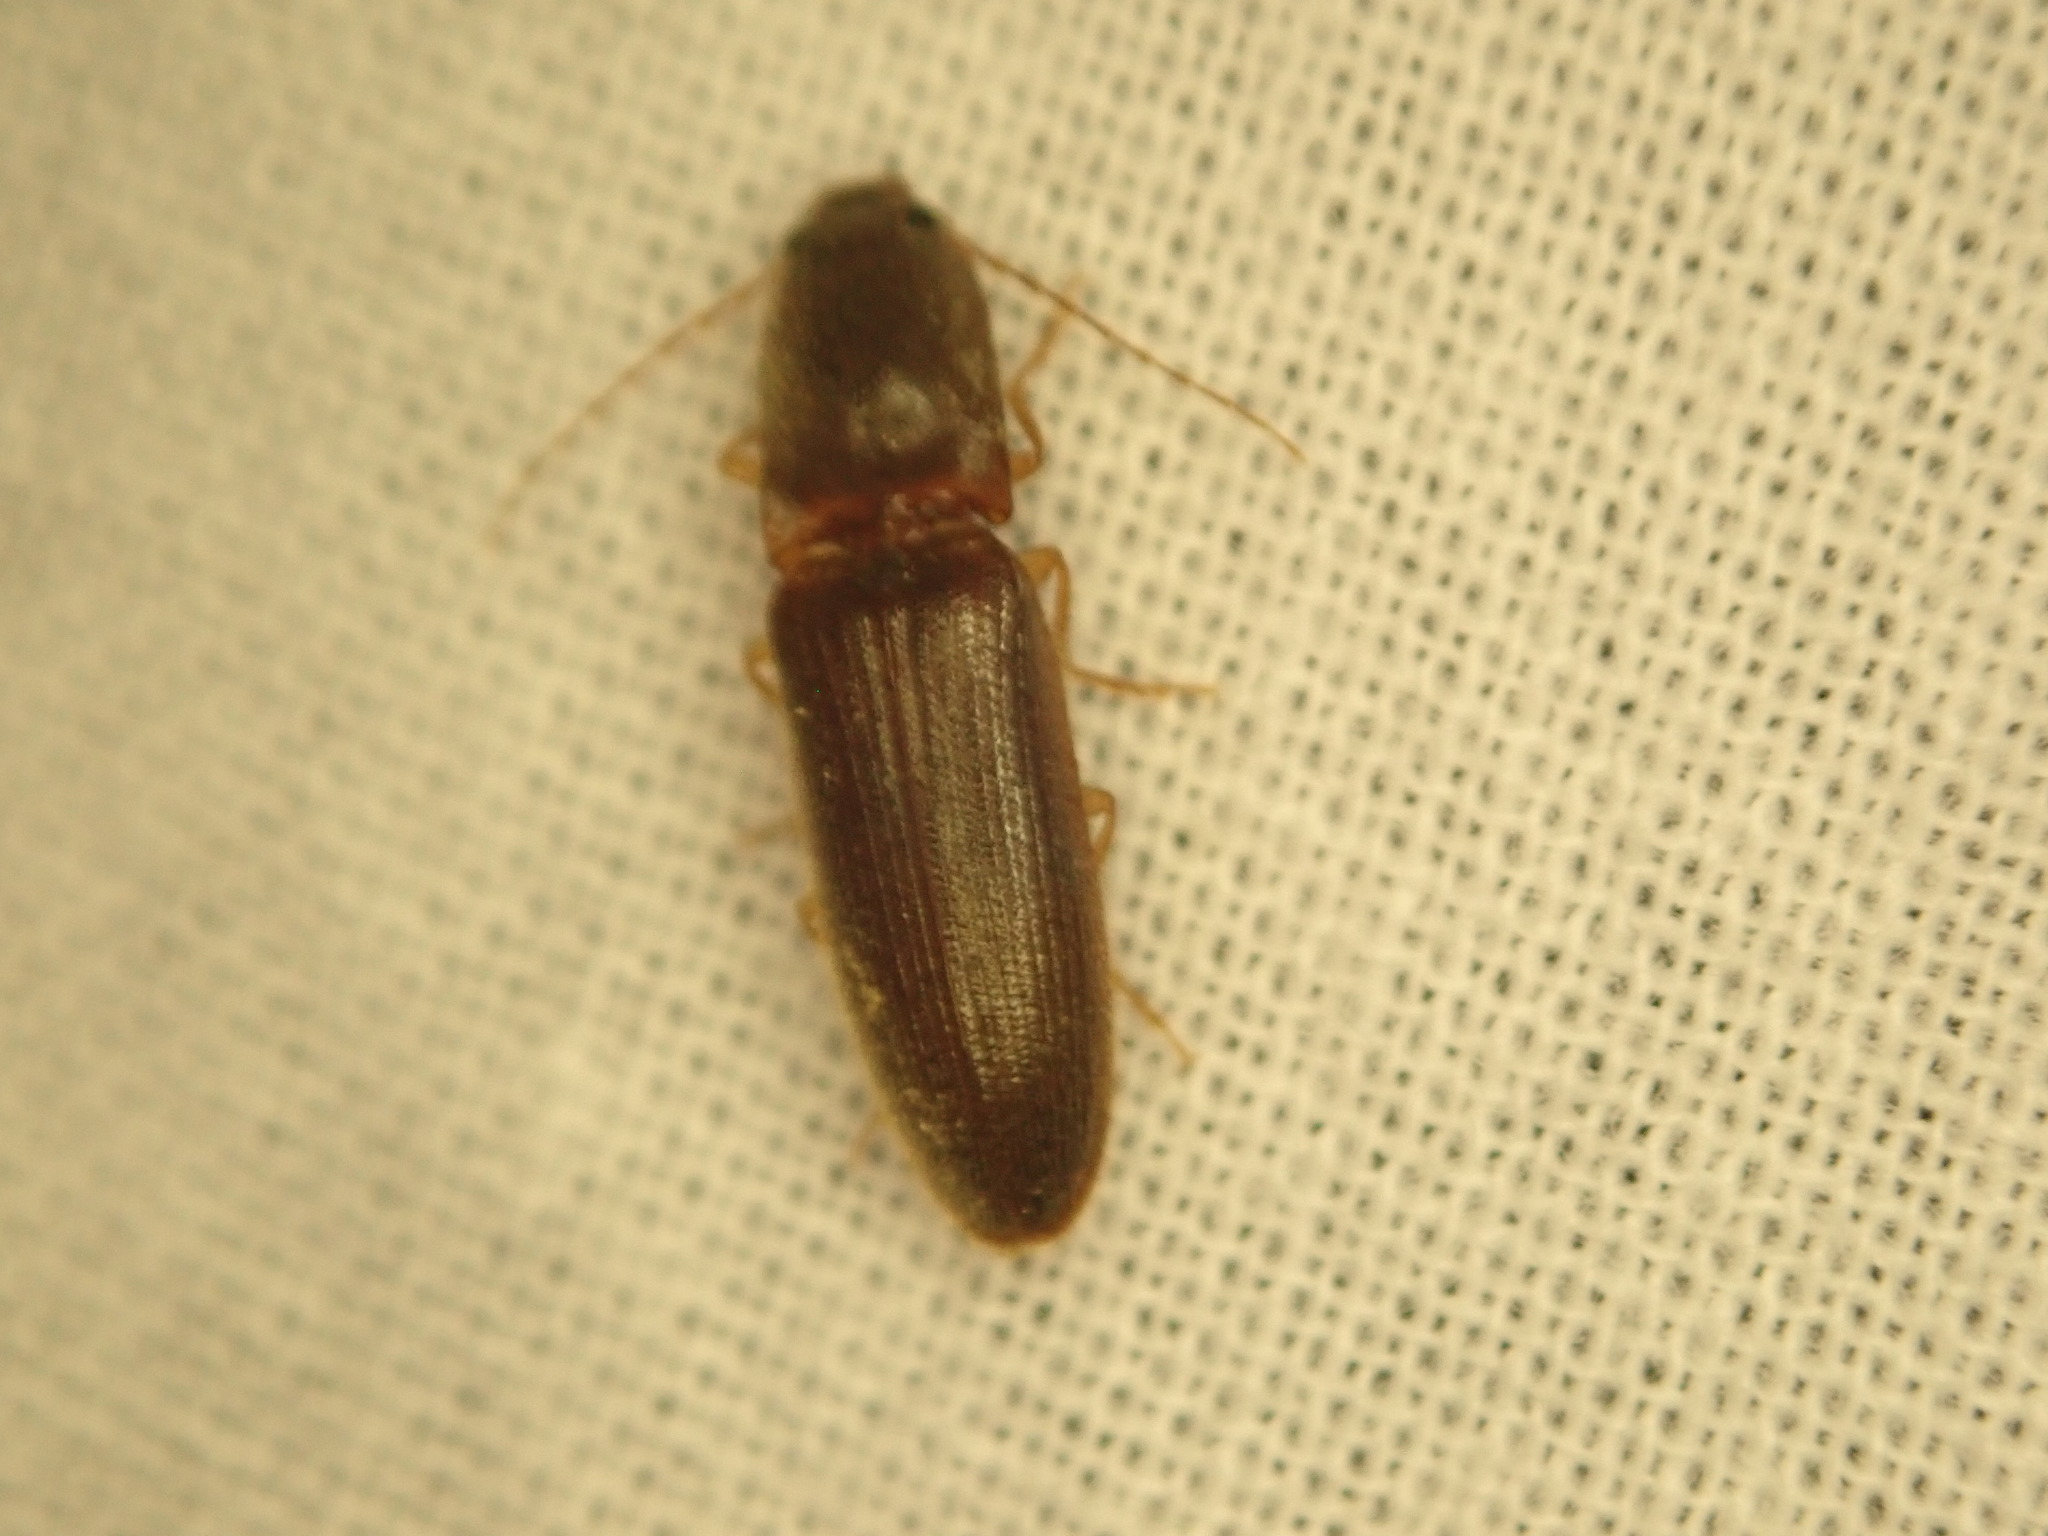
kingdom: Animalia
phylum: Arthropoda
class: Insecta
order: Coleoptera
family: Elateridae
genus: Athous
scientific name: Athous cucullatus
